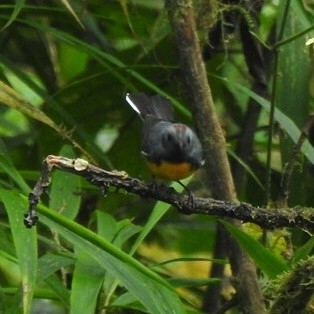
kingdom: Animalia
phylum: Chordata
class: Aves
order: Passeriformes
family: Parulidae
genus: Myioborus
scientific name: Myioborus miniatus
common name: Slate-throated redstart
